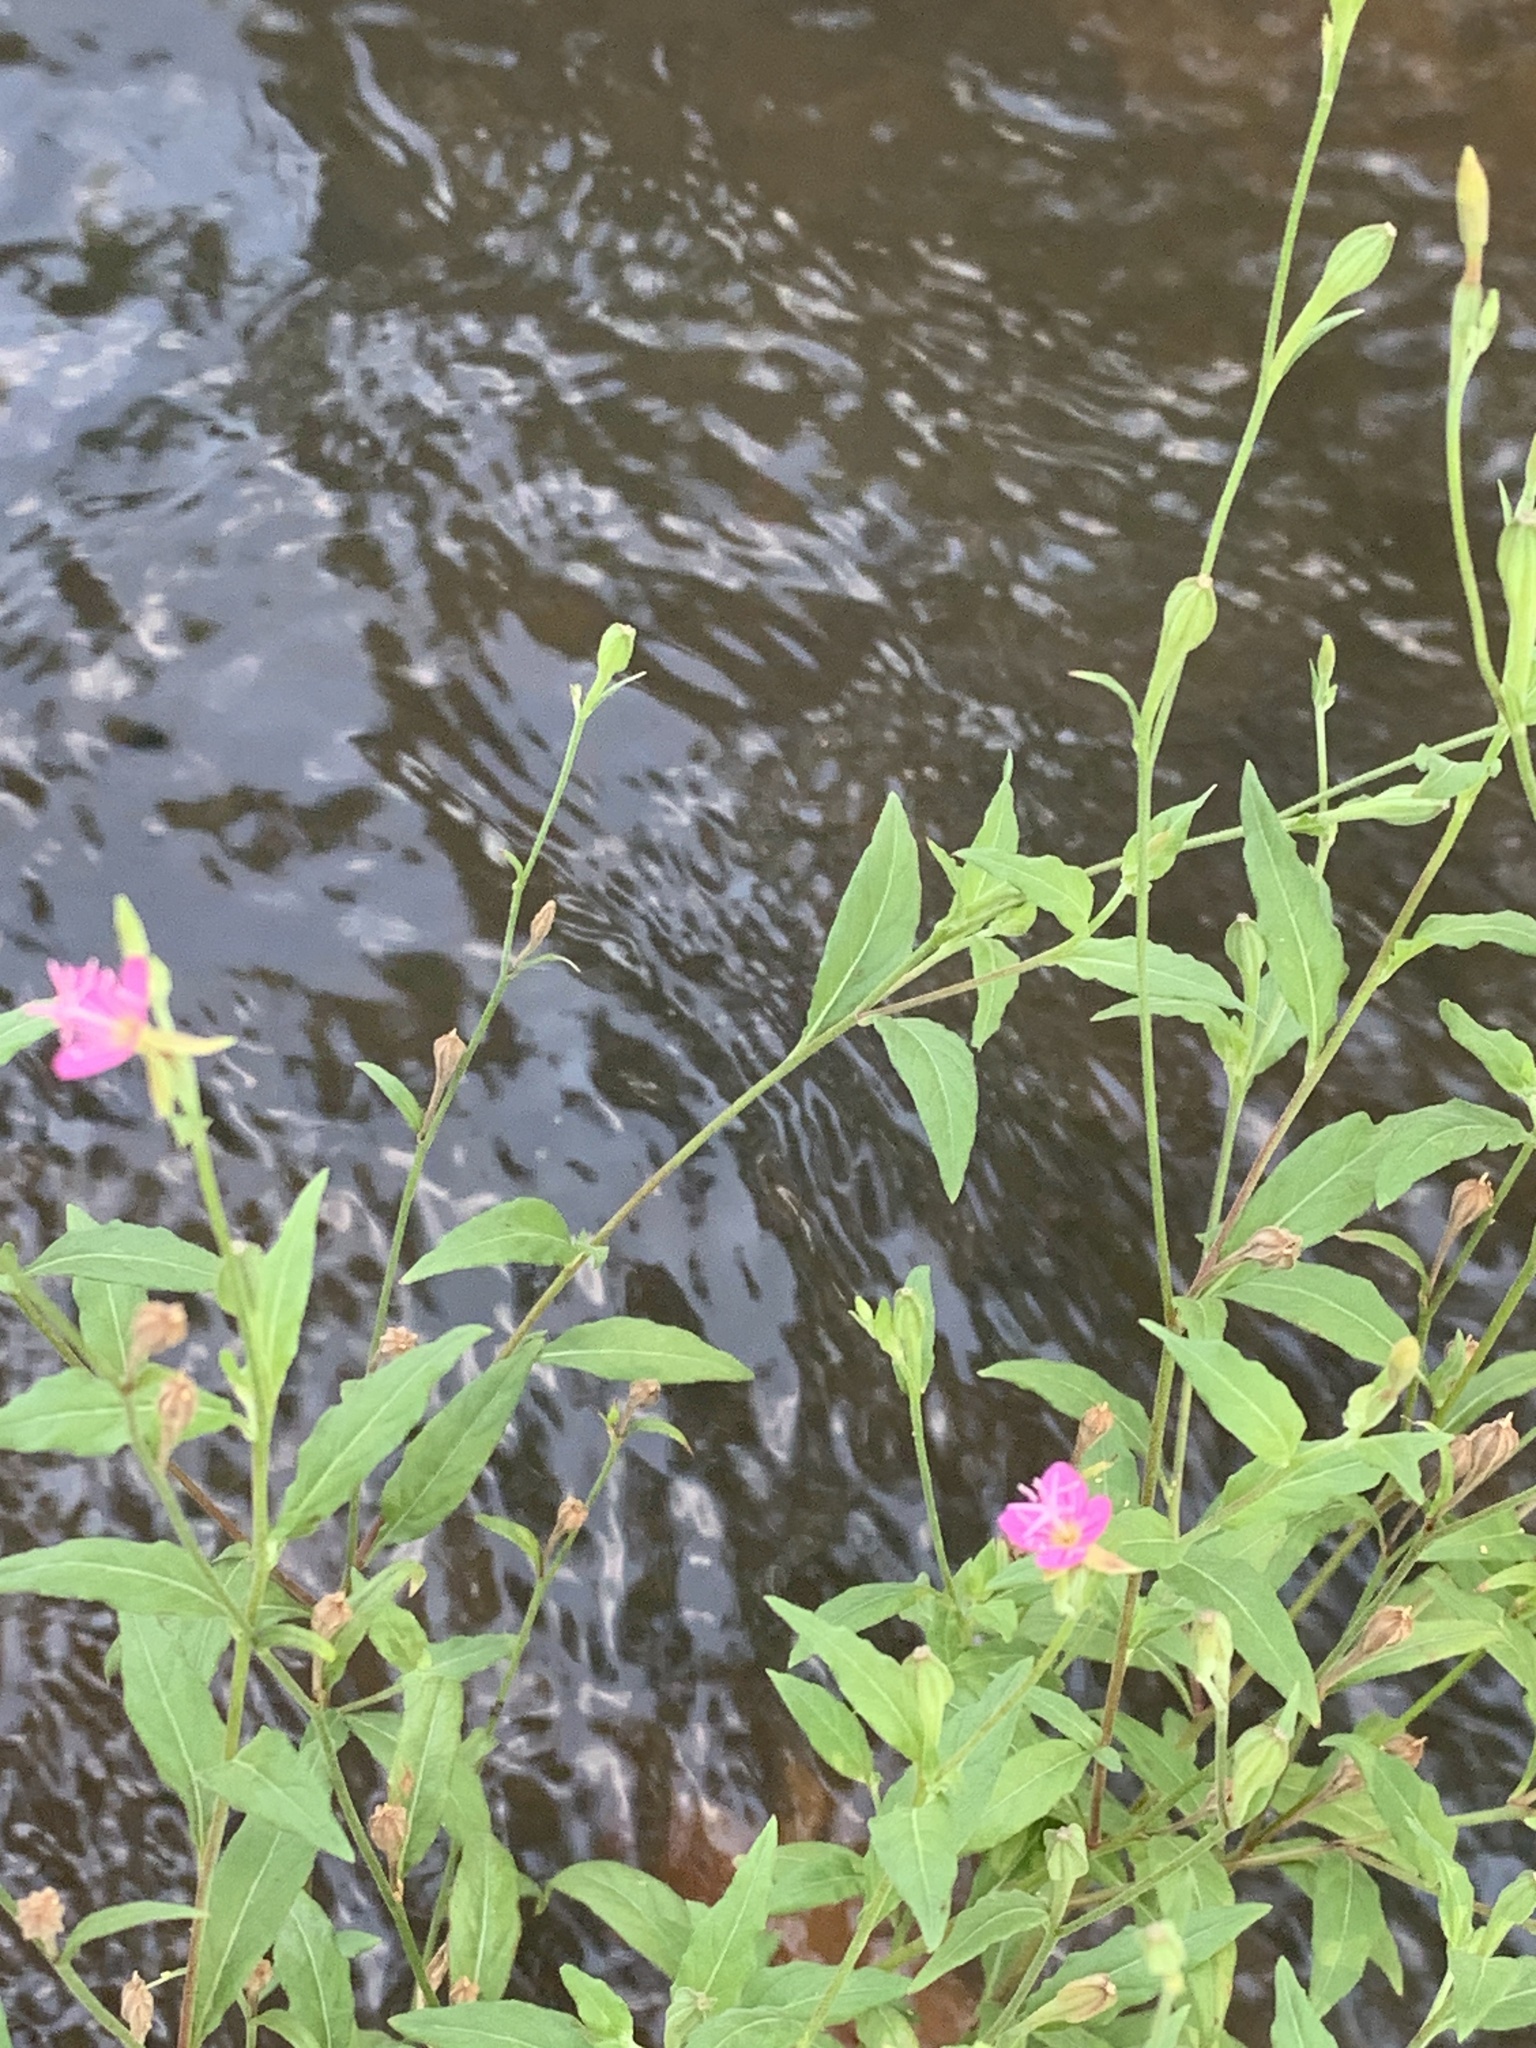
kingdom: Plantae
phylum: Tracheophyta
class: Magnoliopsida
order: Myrtales
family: Onagraceae
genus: Oenothera
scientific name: Oenothera rosea
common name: Rosy evening-primrose
